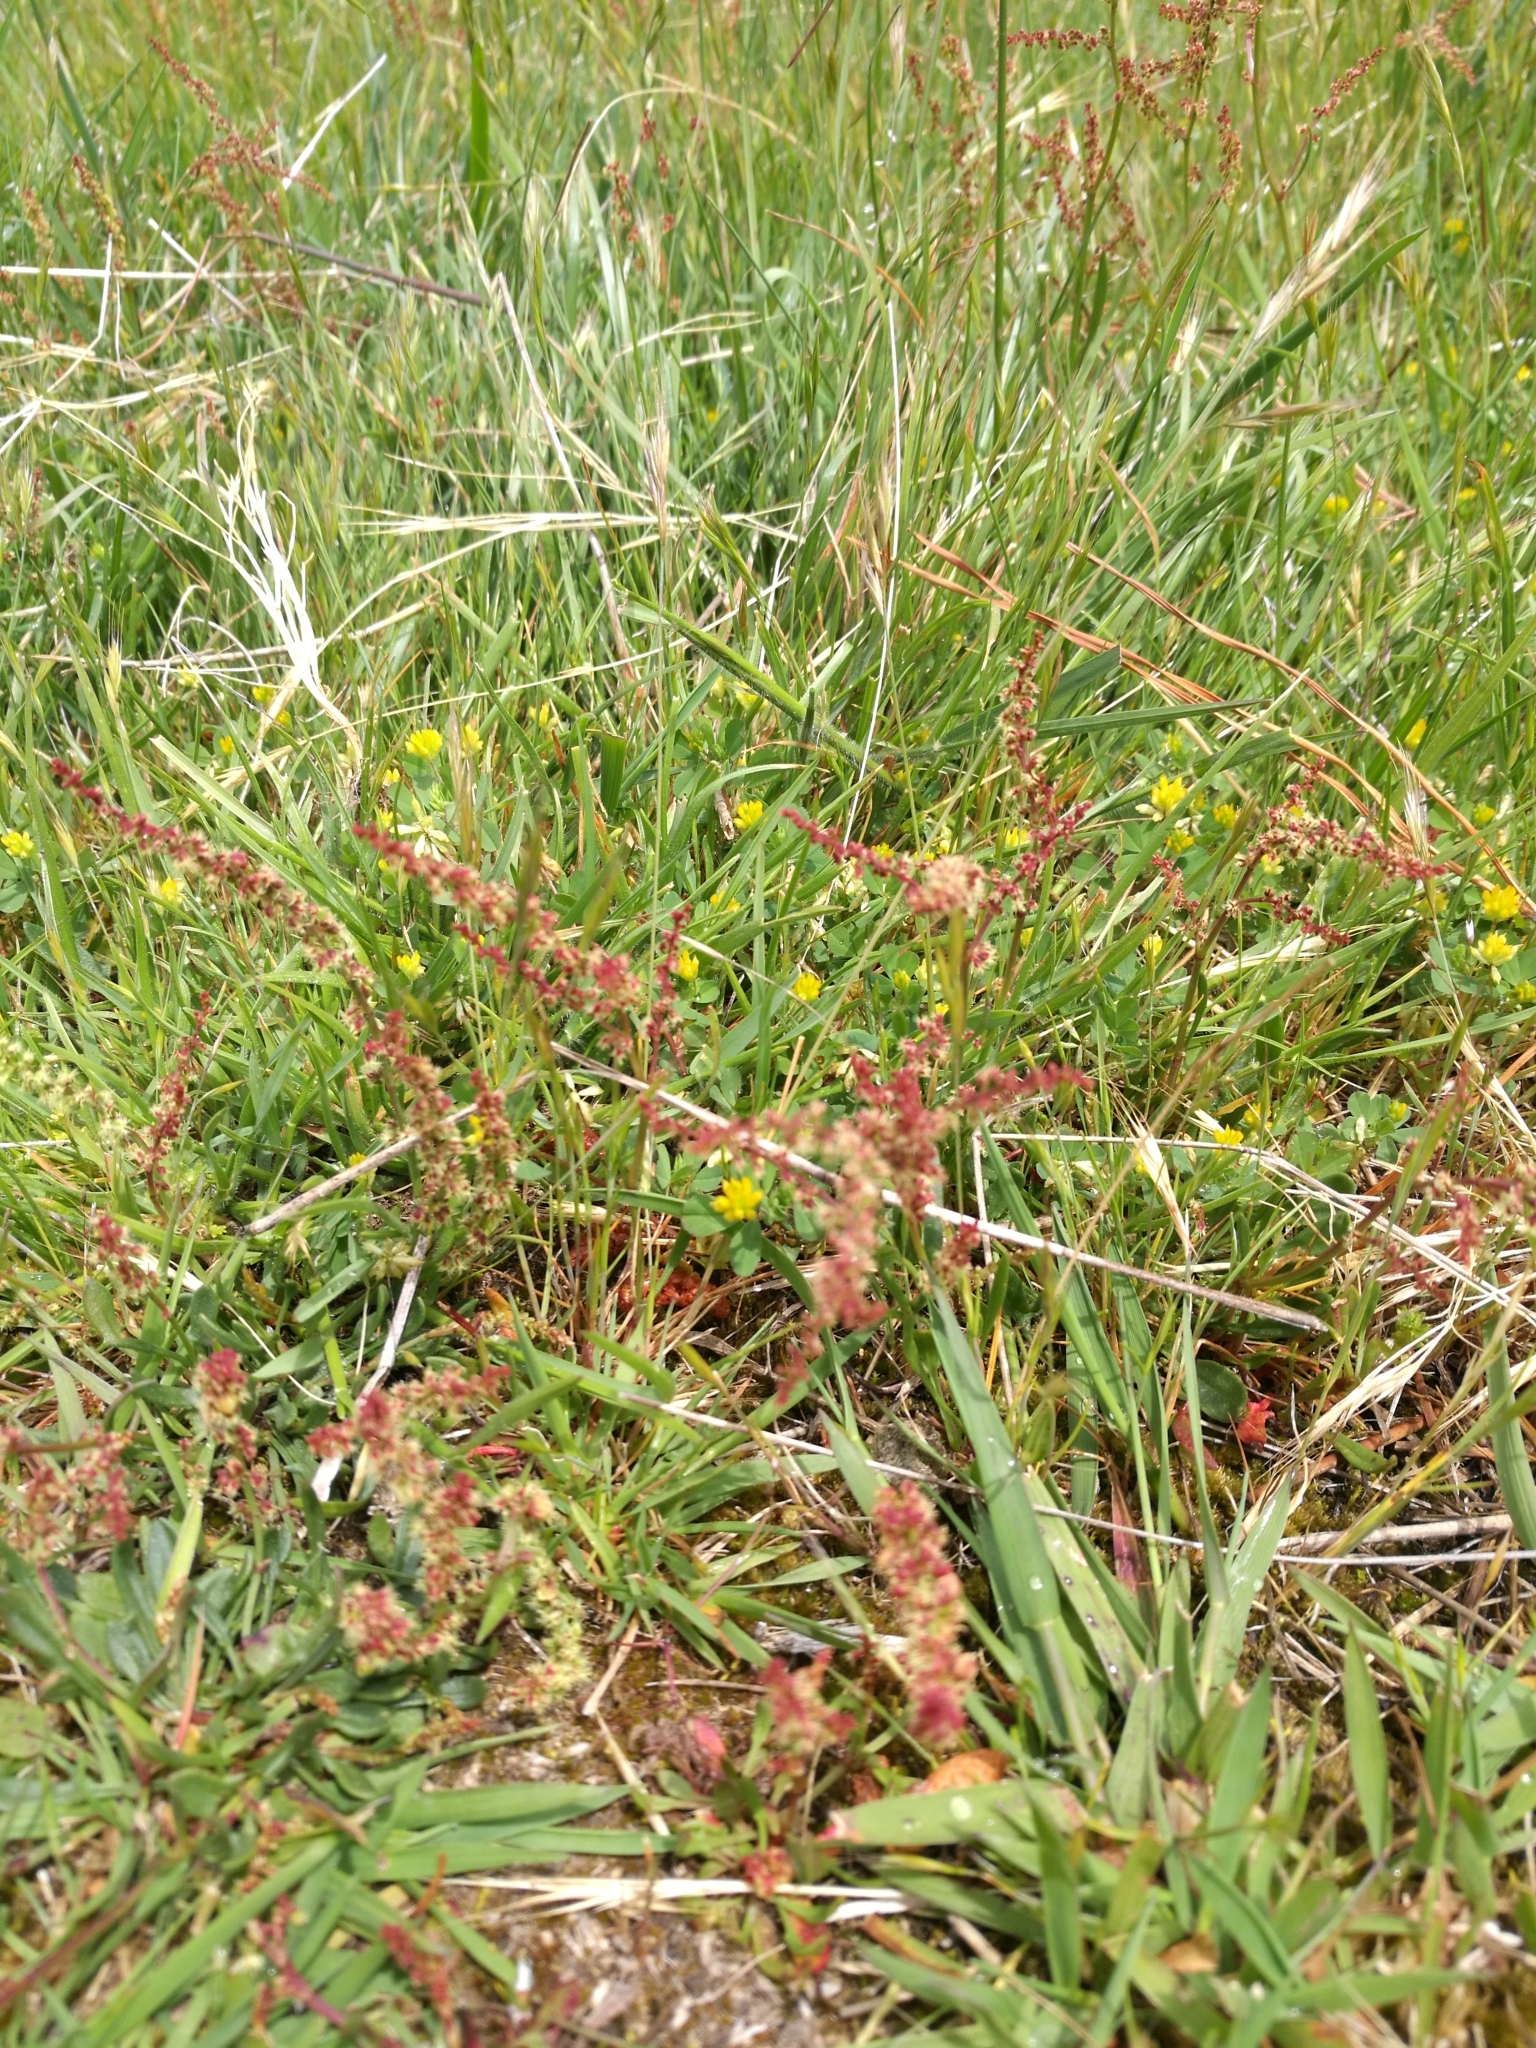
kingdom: Plantae
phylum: Tracheophyta
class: Magnoliopsida
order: Caryophyllales
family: Polygonaceae
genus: Rumex
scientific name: Rumex acetosella
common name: Common sheep sorrel
